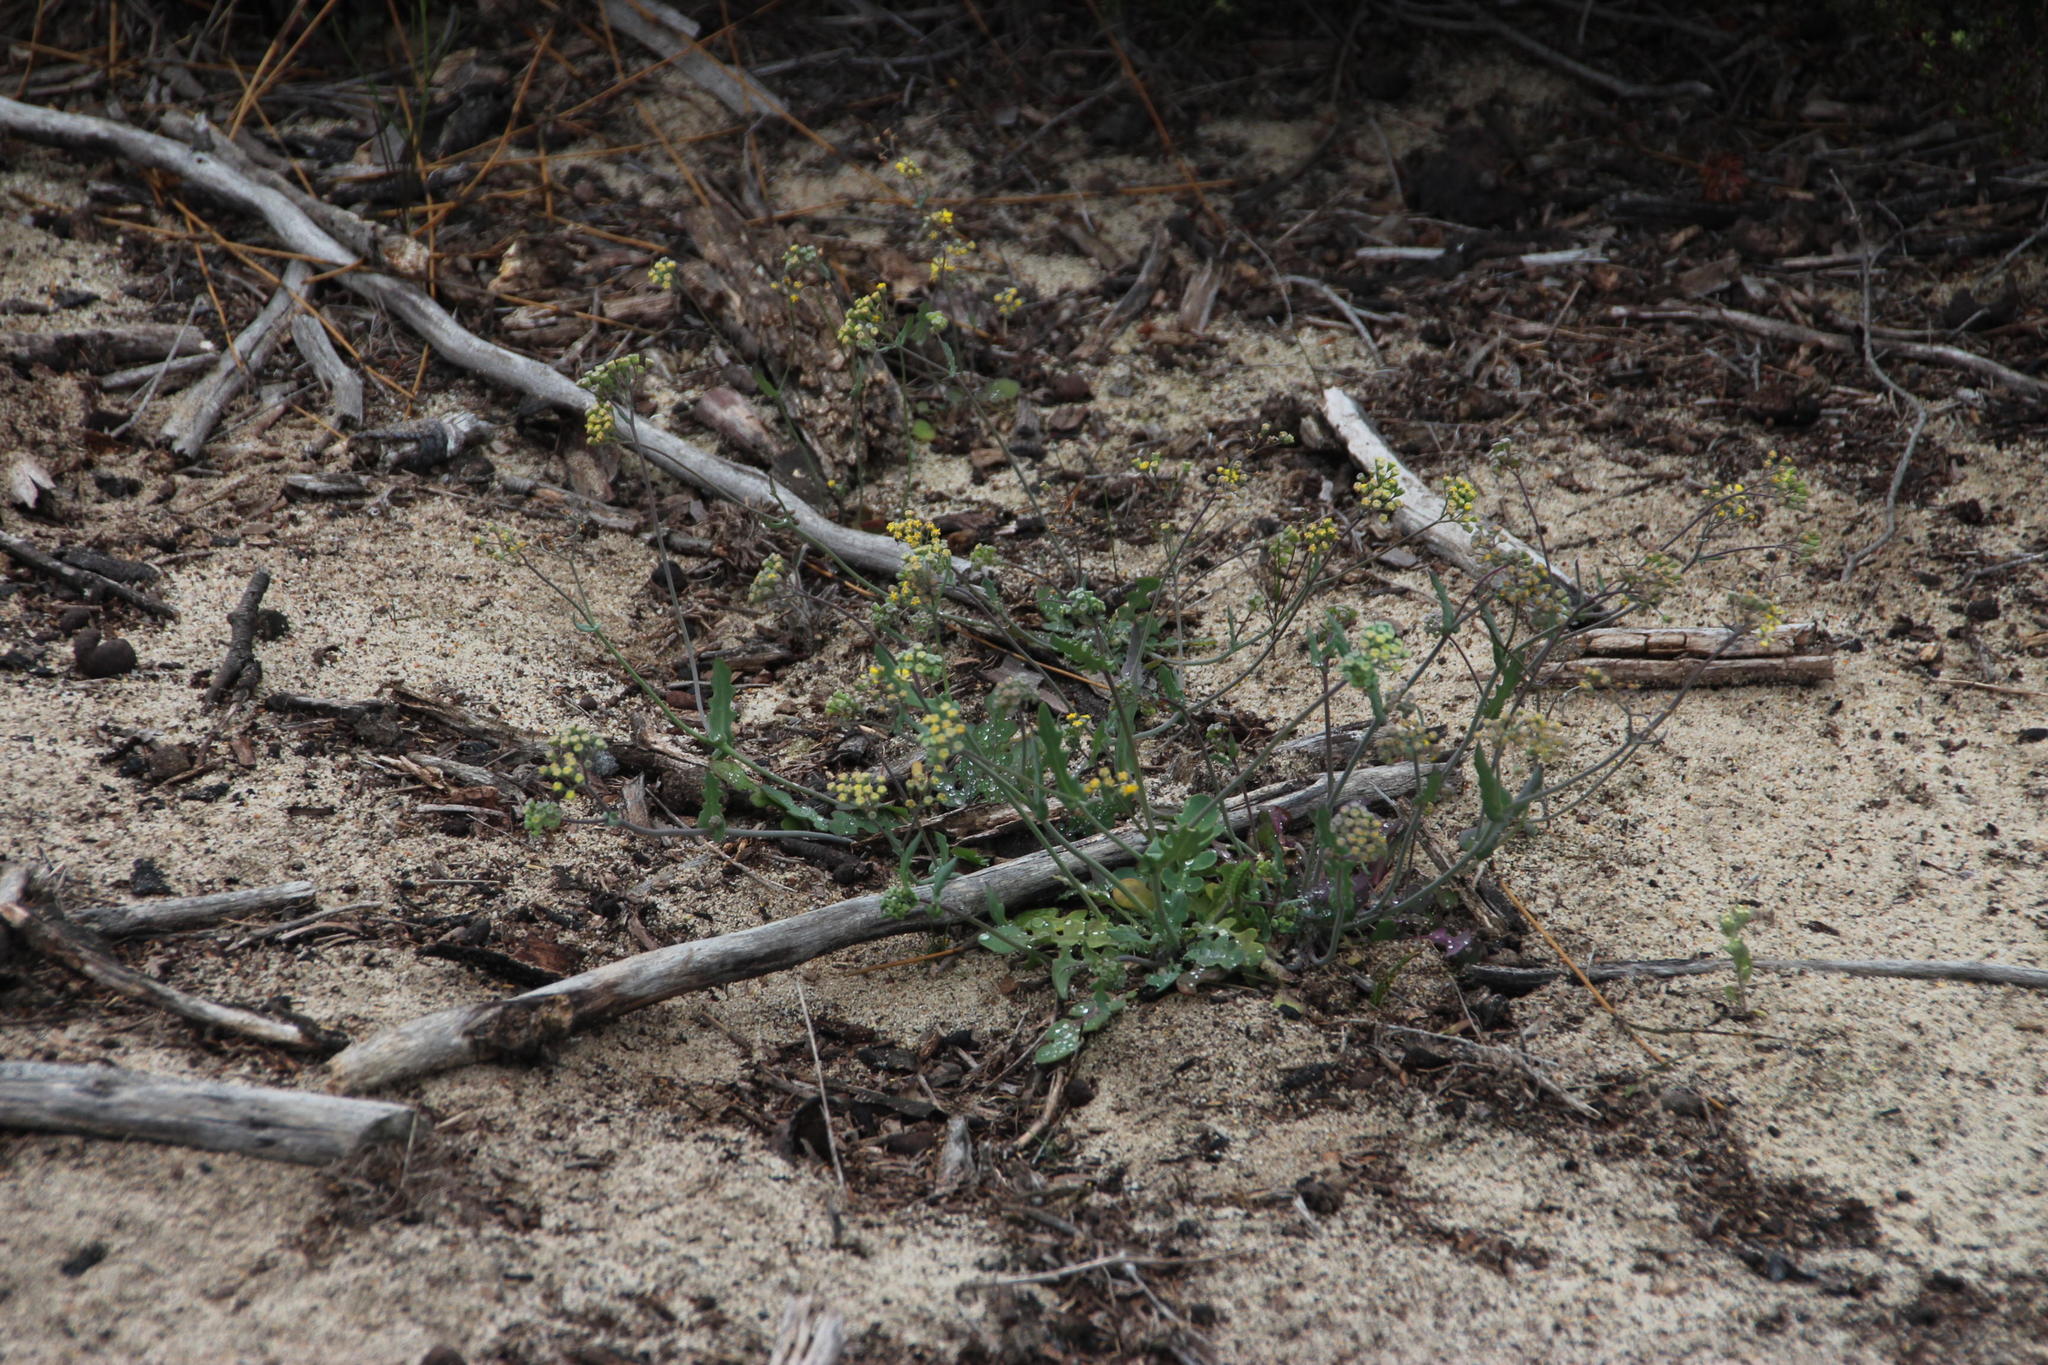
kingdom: Plantae
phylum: Tracheophyta
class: Magnoliopsida
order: Asterales
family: Asteraceae
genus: Gymnodiscus
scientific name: Gymnodiscus capillaris
